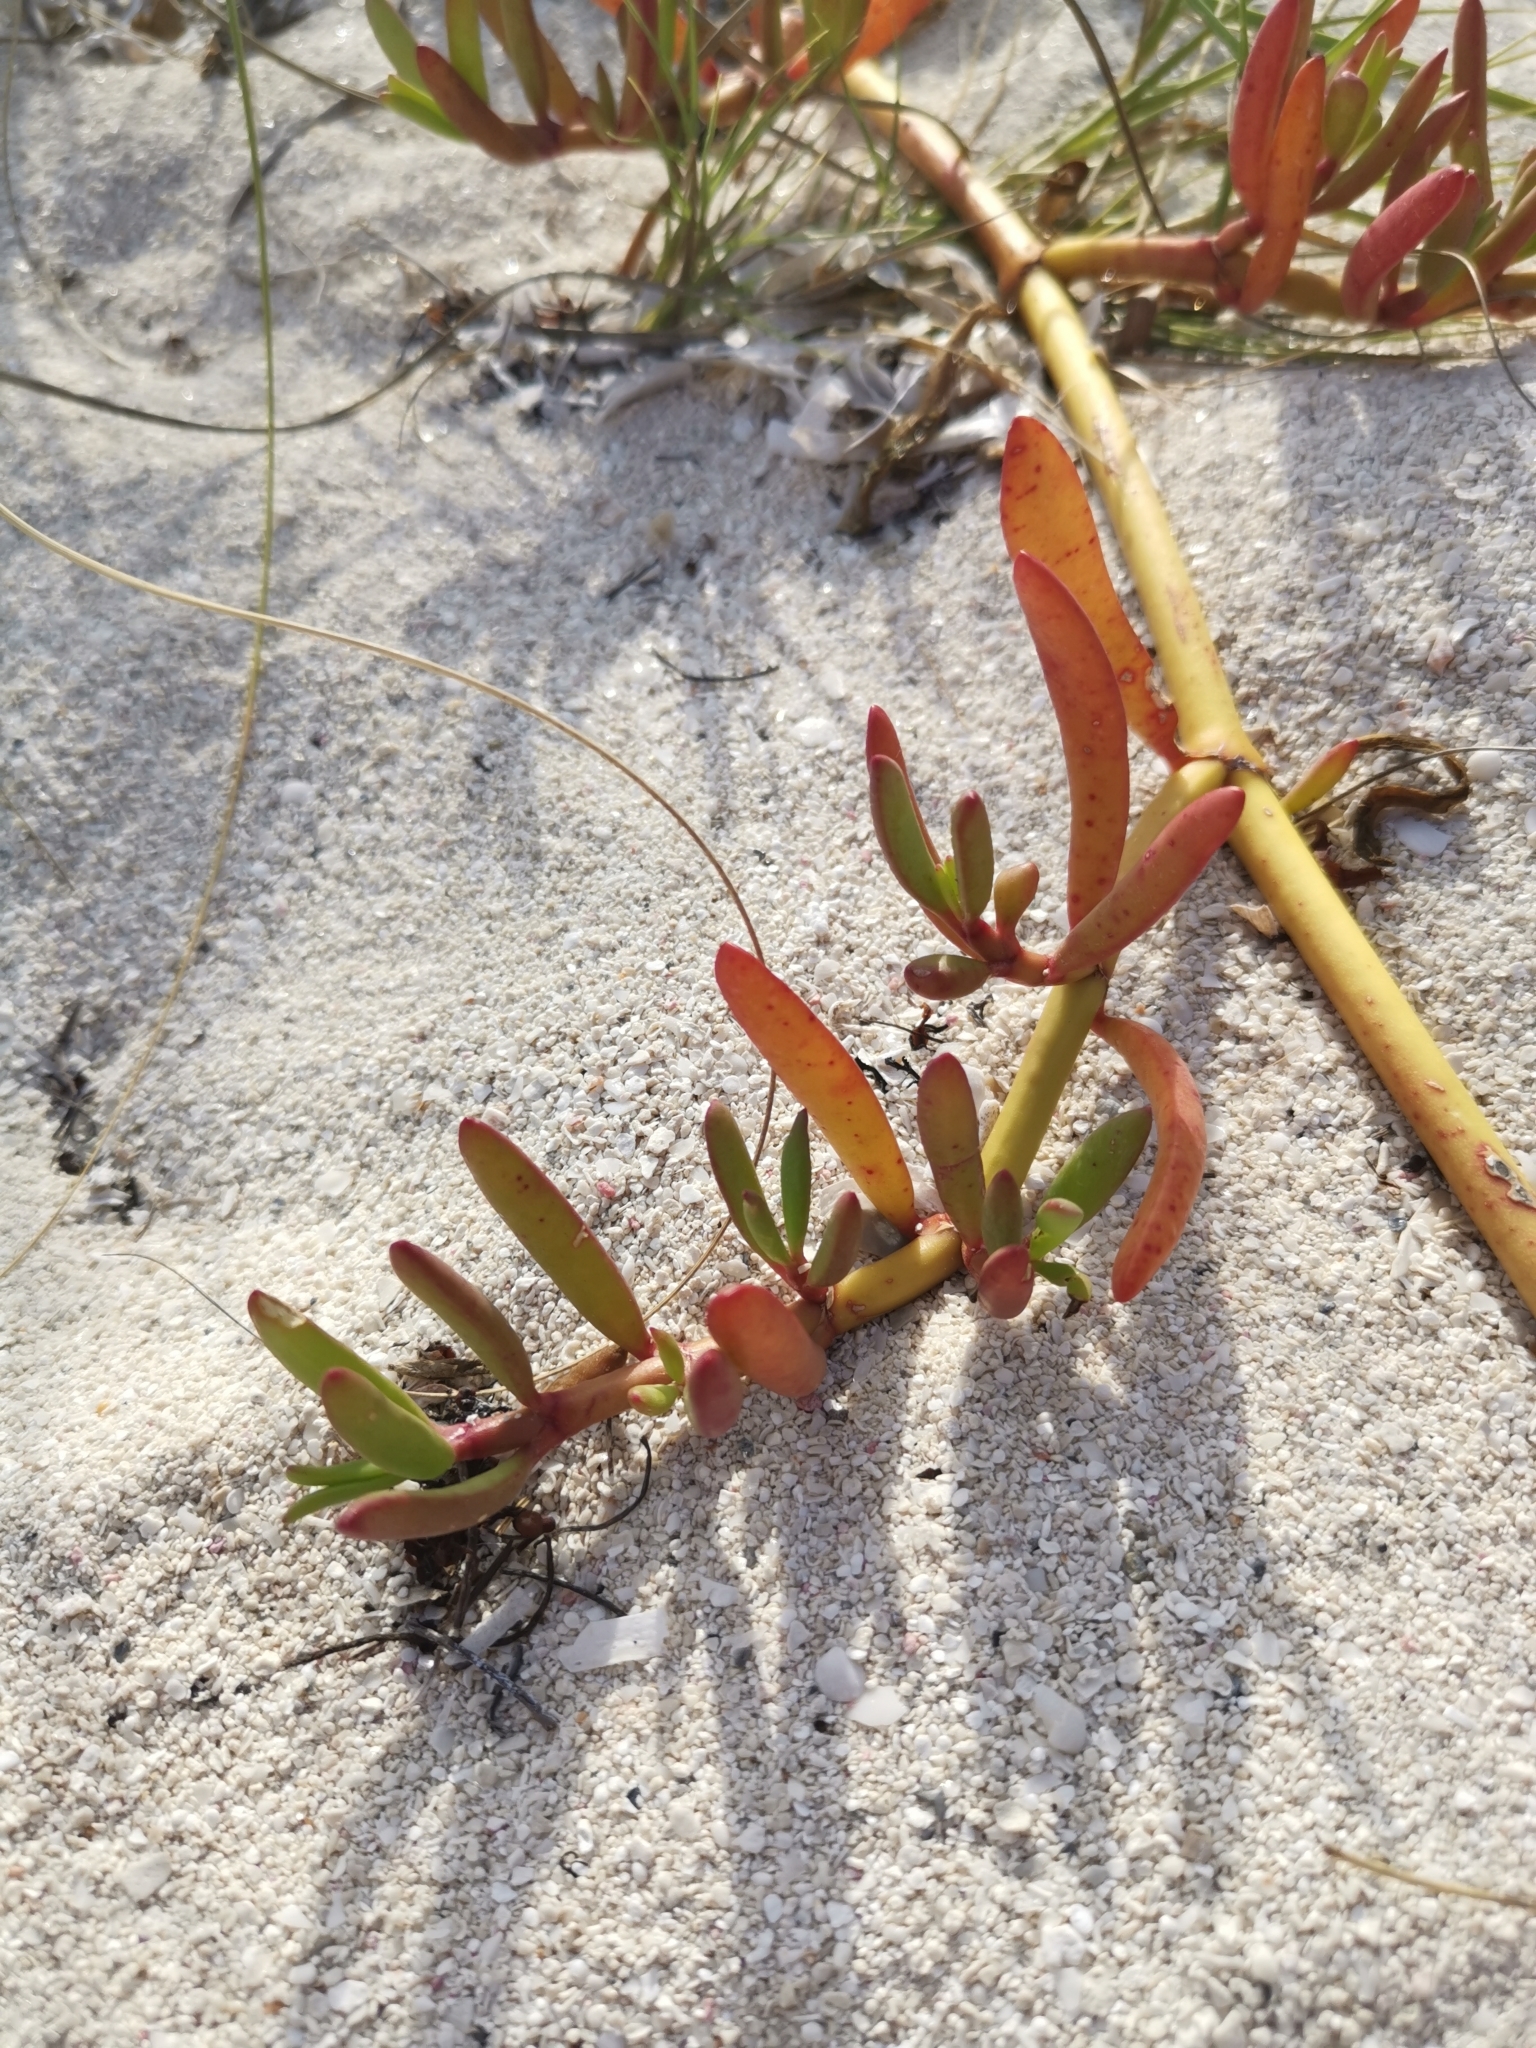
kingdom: Plantae
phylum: Tracheophyta
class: Magnoliopsida
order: Caryophyllales
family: Aizoaceae
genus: Sesuvium
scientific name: Sesuvium portulacastrum
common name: Sea-purslane
